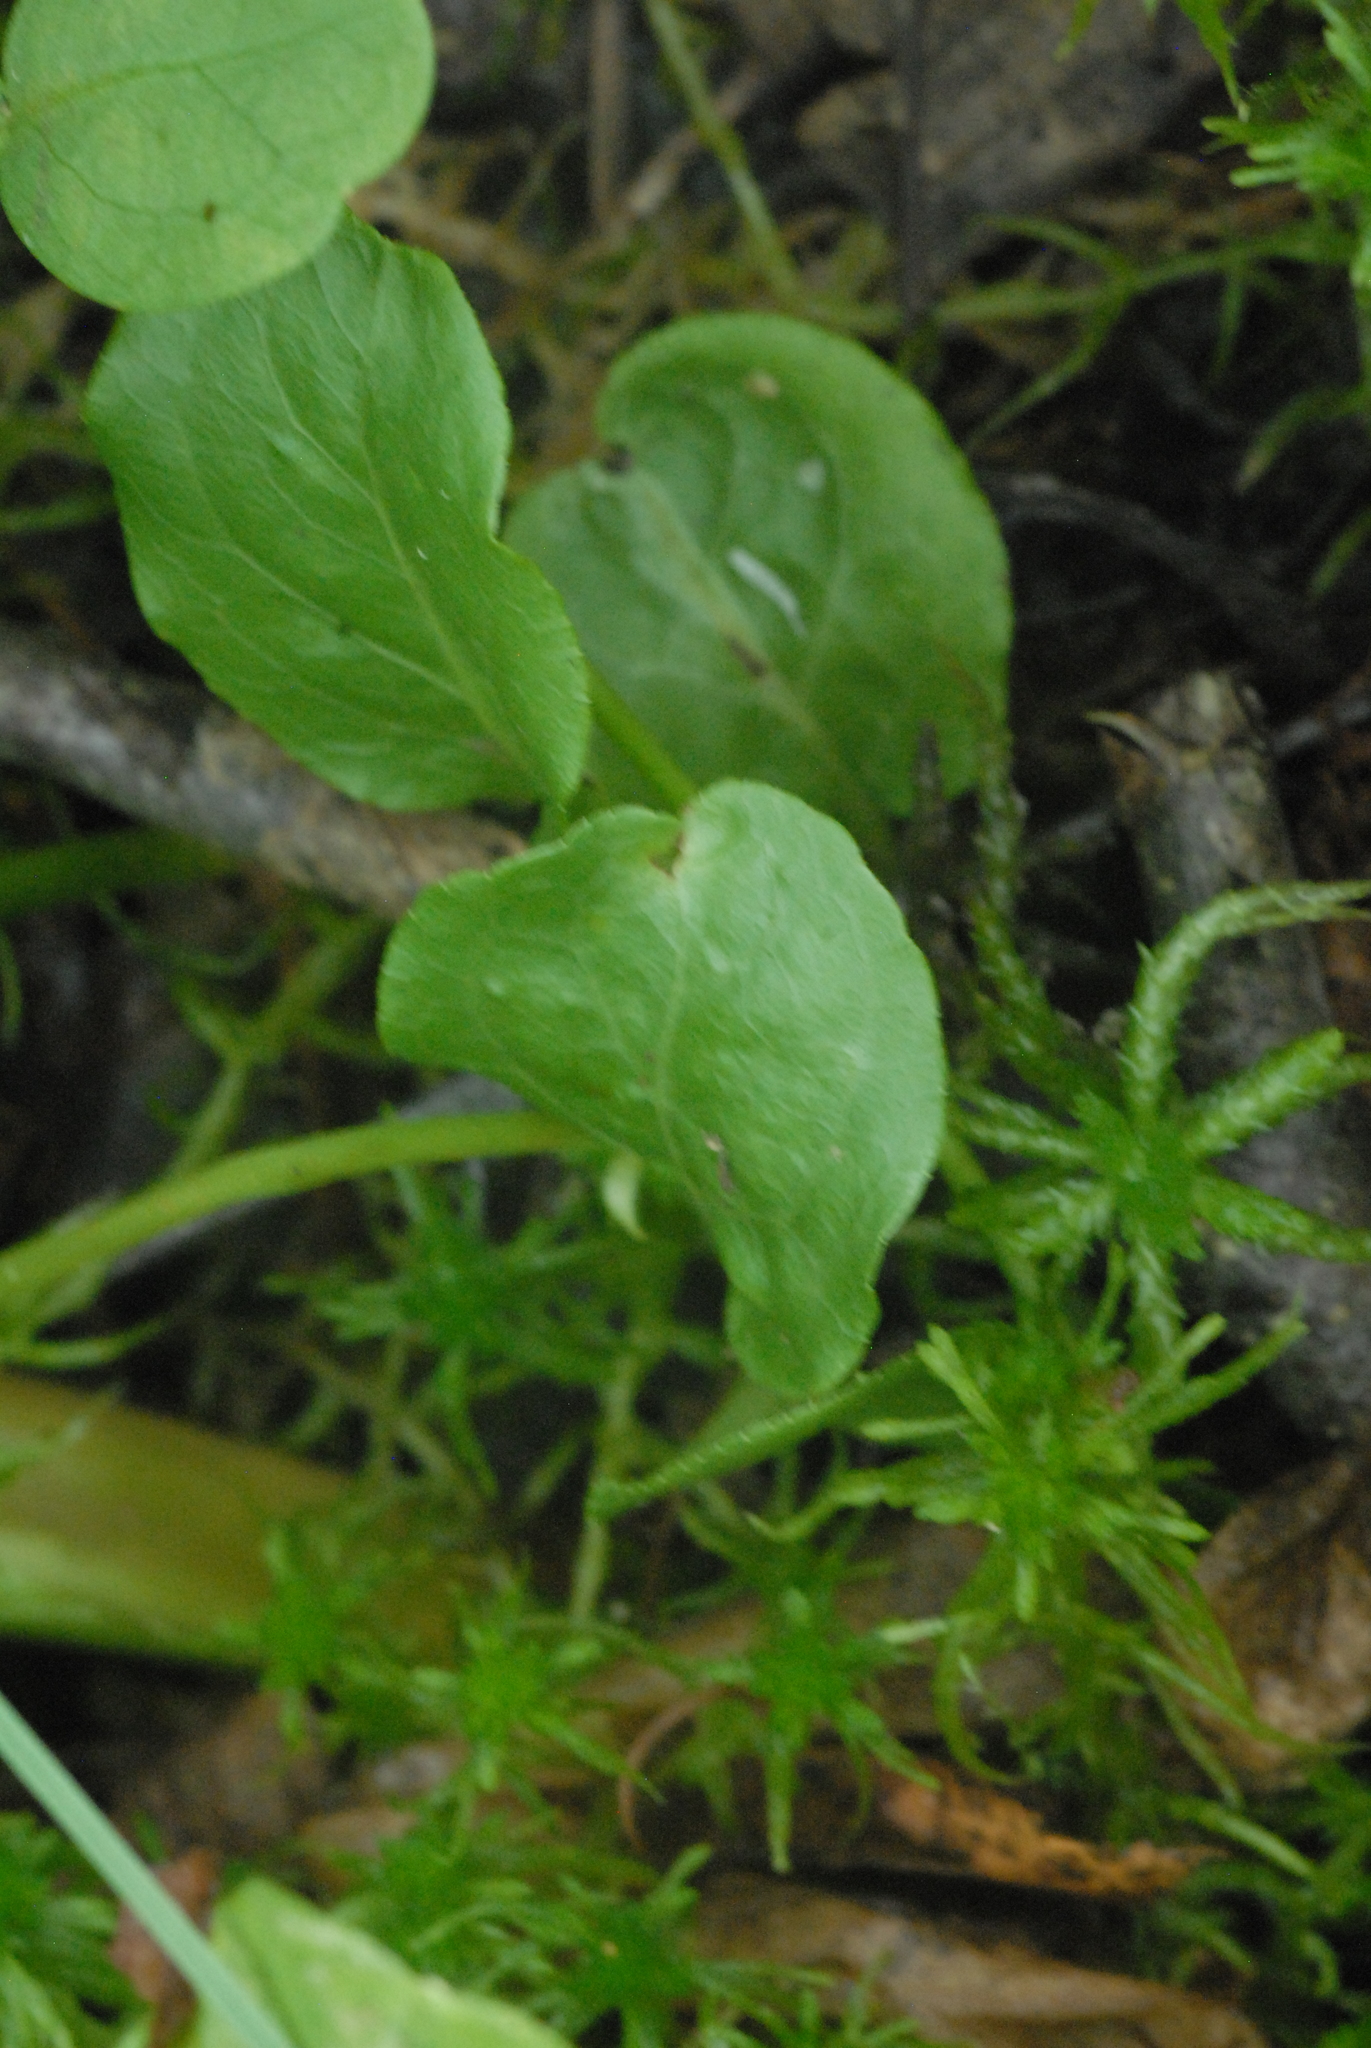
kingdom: Plantae
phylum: Tracheophyta
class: Magnoliopsida
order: Ericales
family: Ericaceae
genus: Pyrola
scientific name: Pyrola minor
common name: Common wintergreen
